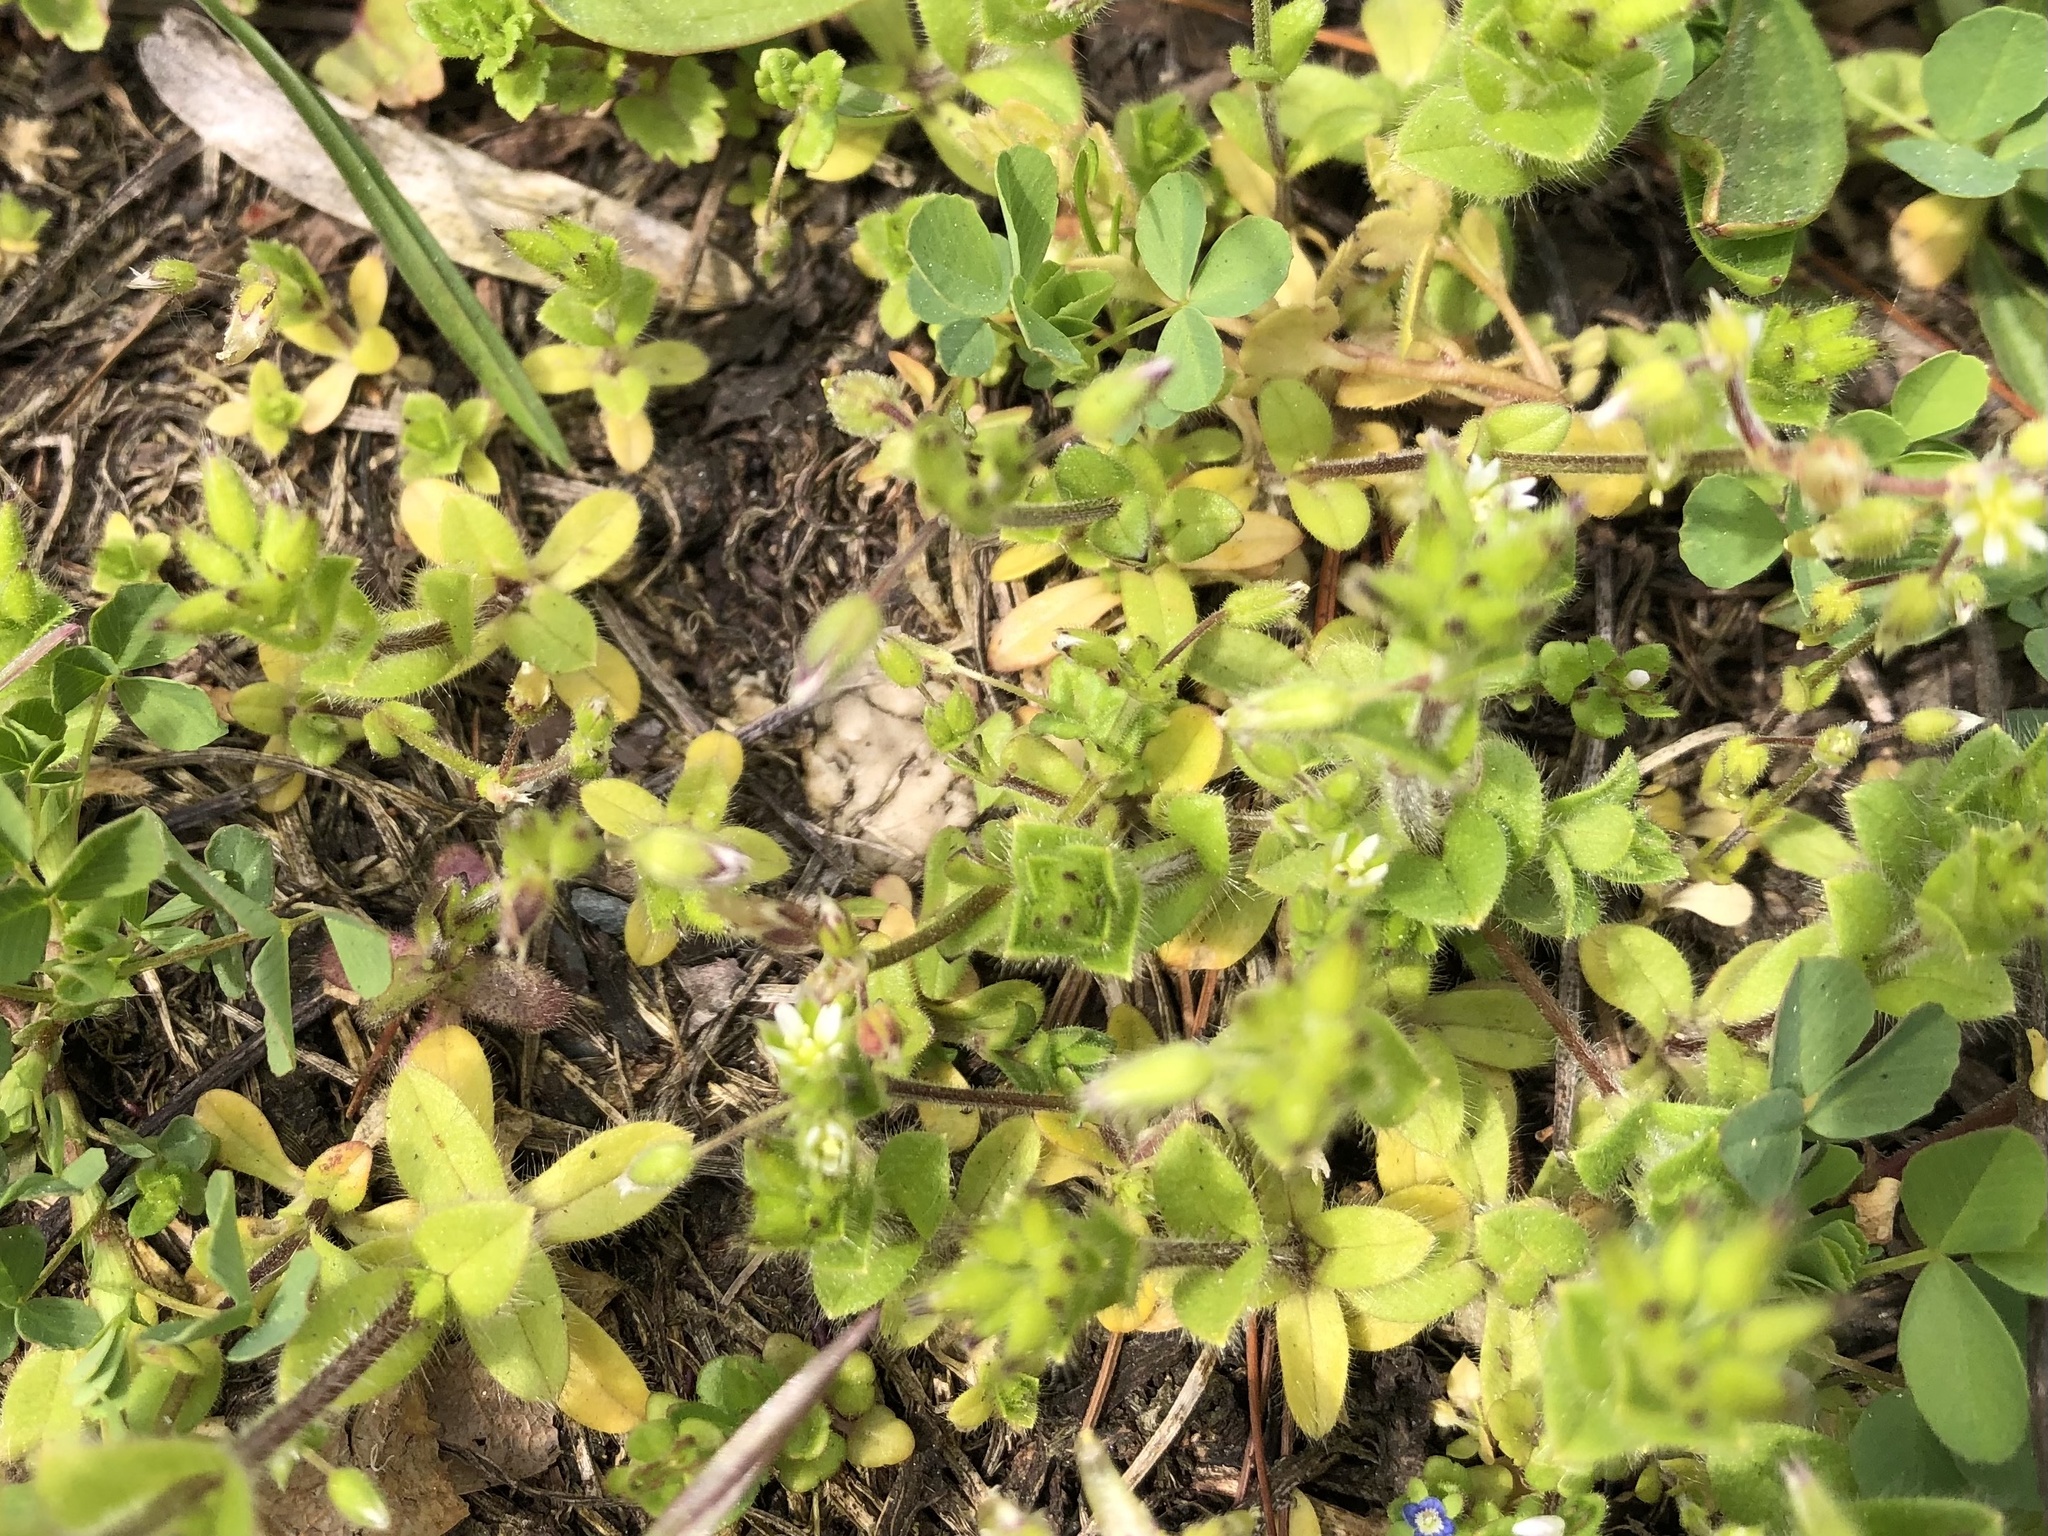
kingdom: Plantae
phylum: Tracheophyta
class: Magnoliopsida
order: Caryophyllales
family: Caryophyllaceae
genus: Cerastium
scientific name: Cerastium glomeratum
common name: Sticky chickweed
